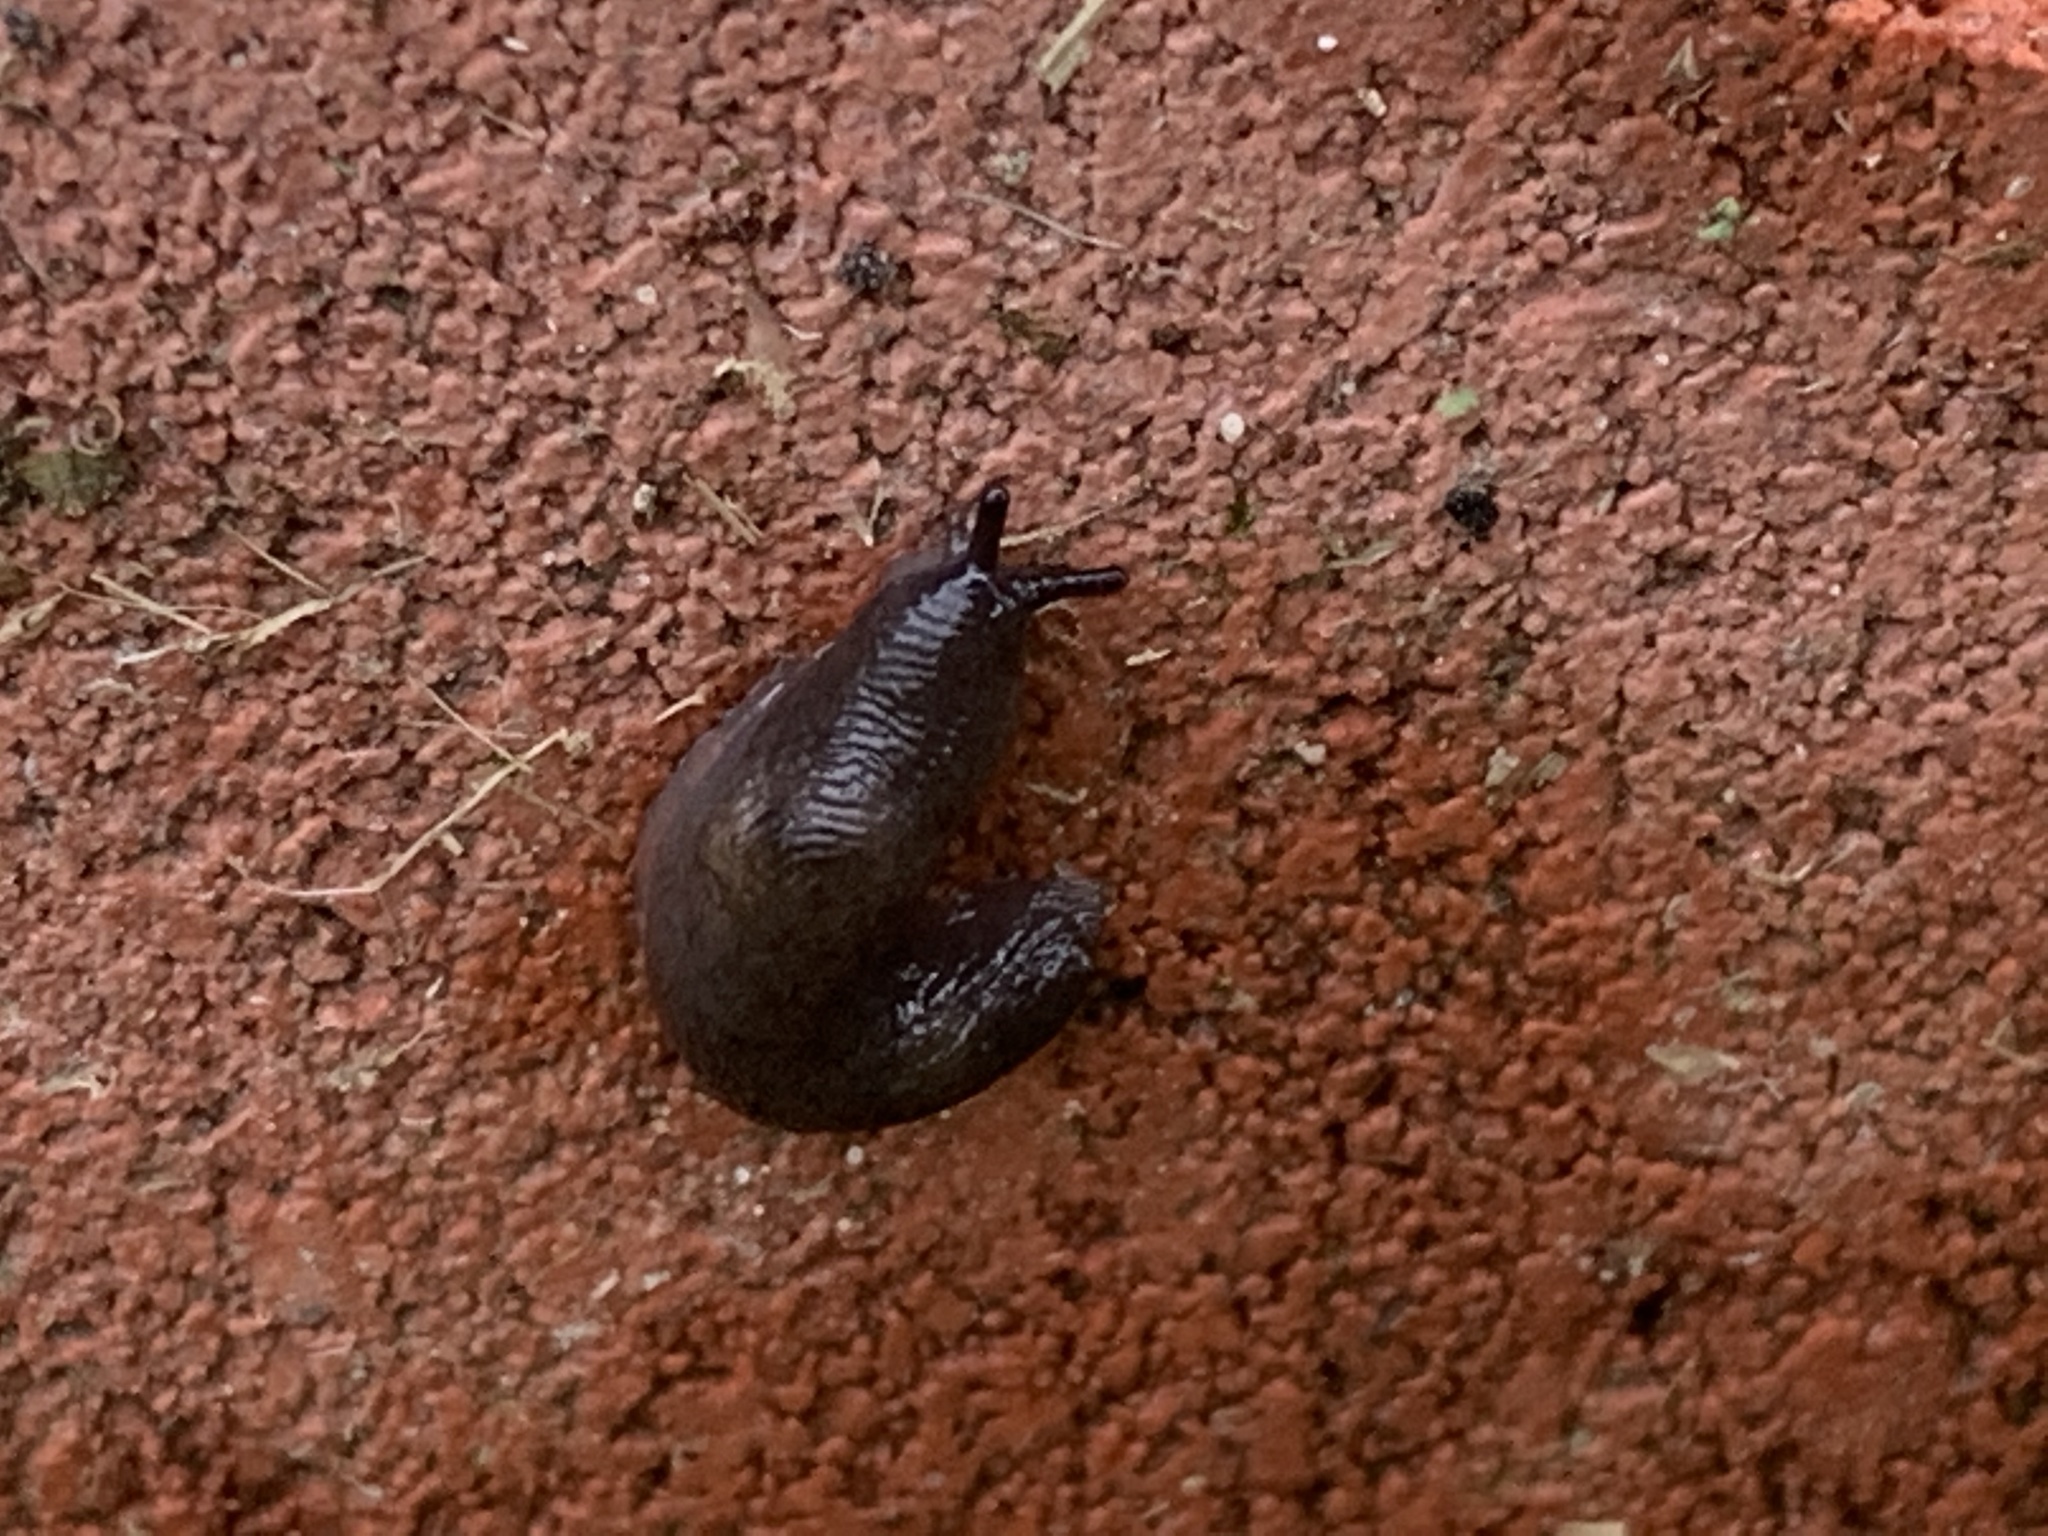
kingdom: Animalia
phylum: Mollusca
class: Gastropoda
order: Stylommatophora
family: Agriolimacidae
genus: Deroceras
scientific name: Deroceras laeve
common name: Marsh slug
